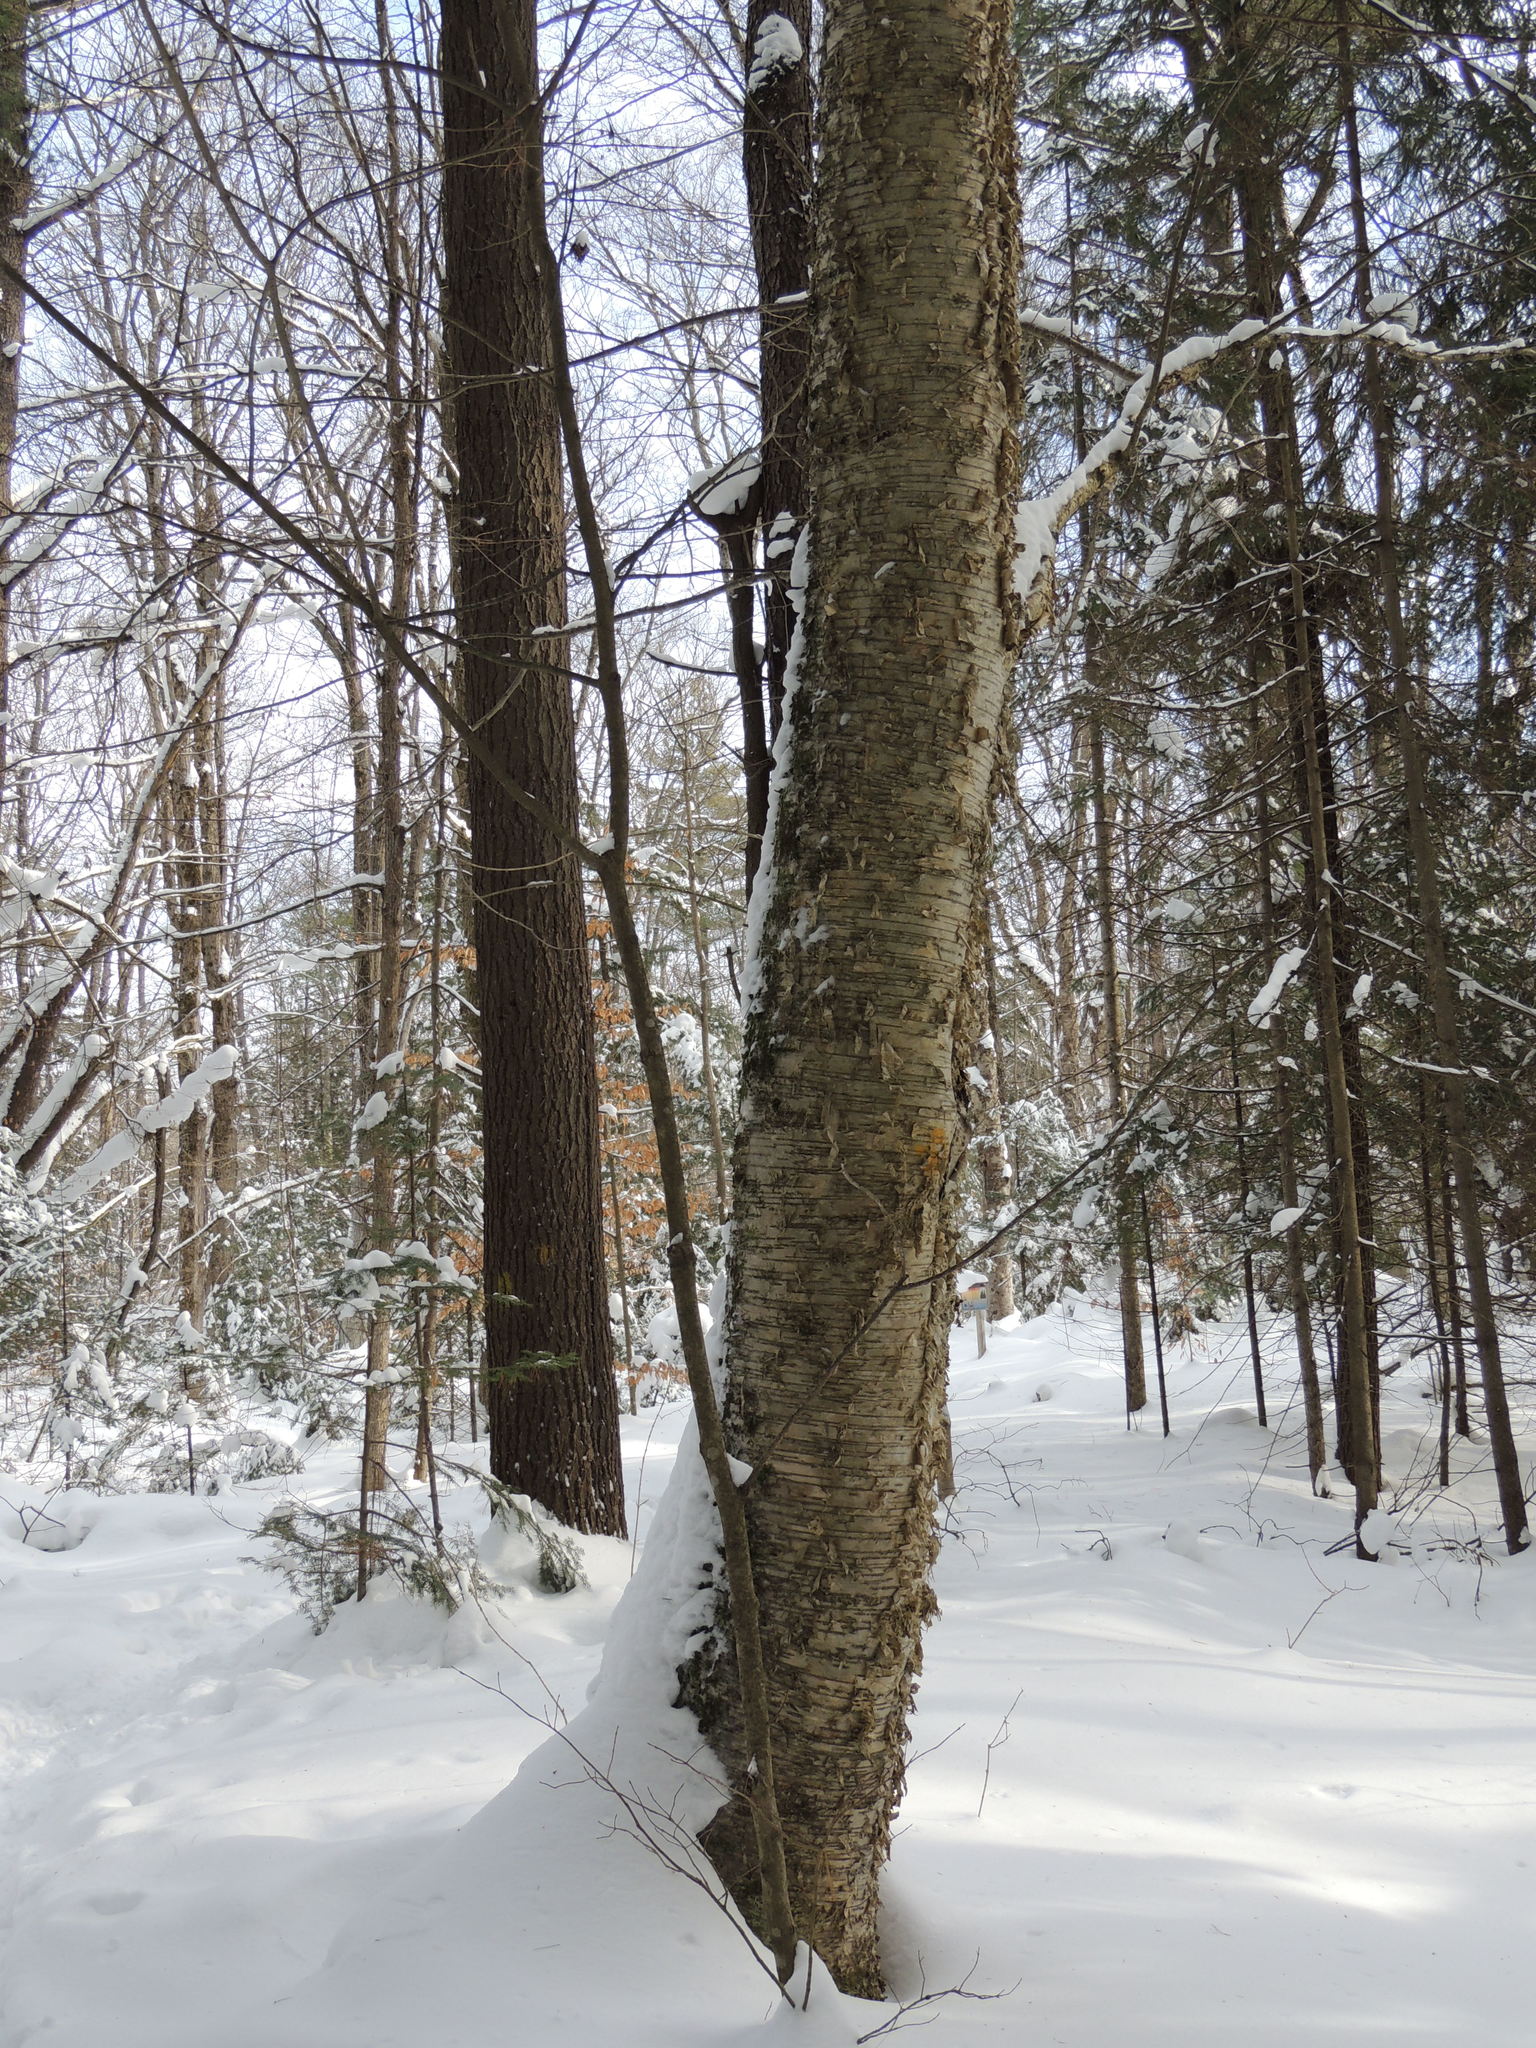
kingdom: Plantae
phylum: Tracheophyta
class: Magnoliopsida
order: Fagales
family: Betulaceae
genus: Betula
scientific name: Betula alleghaniensis
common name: Yellow birch
